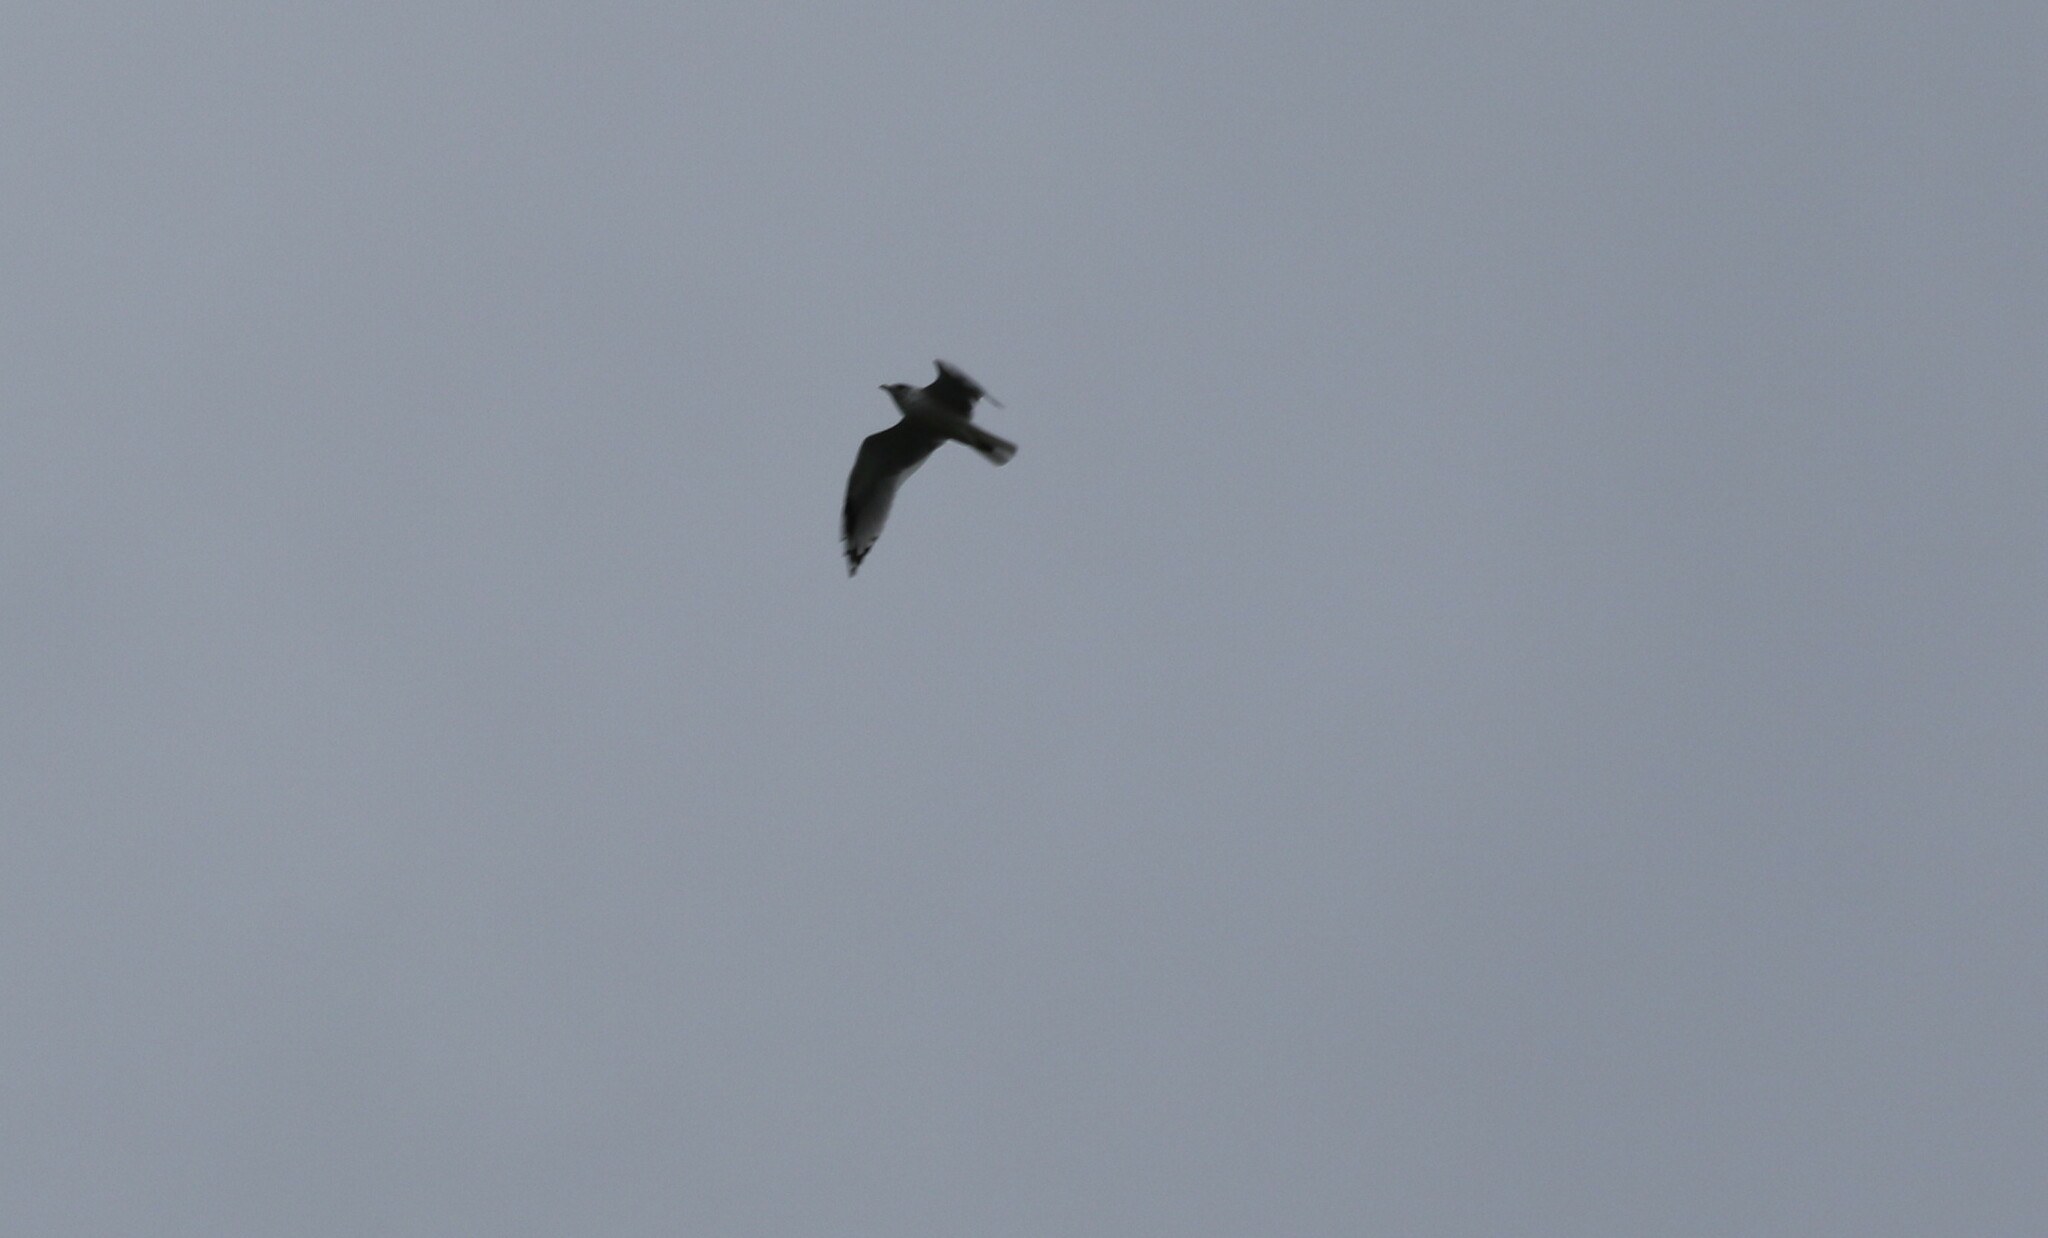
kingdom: Animalia
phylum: Chordata
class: Aves
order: Charadriiformes
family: Laridae
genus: Larus
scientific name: Larus canus
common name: Mew gull
